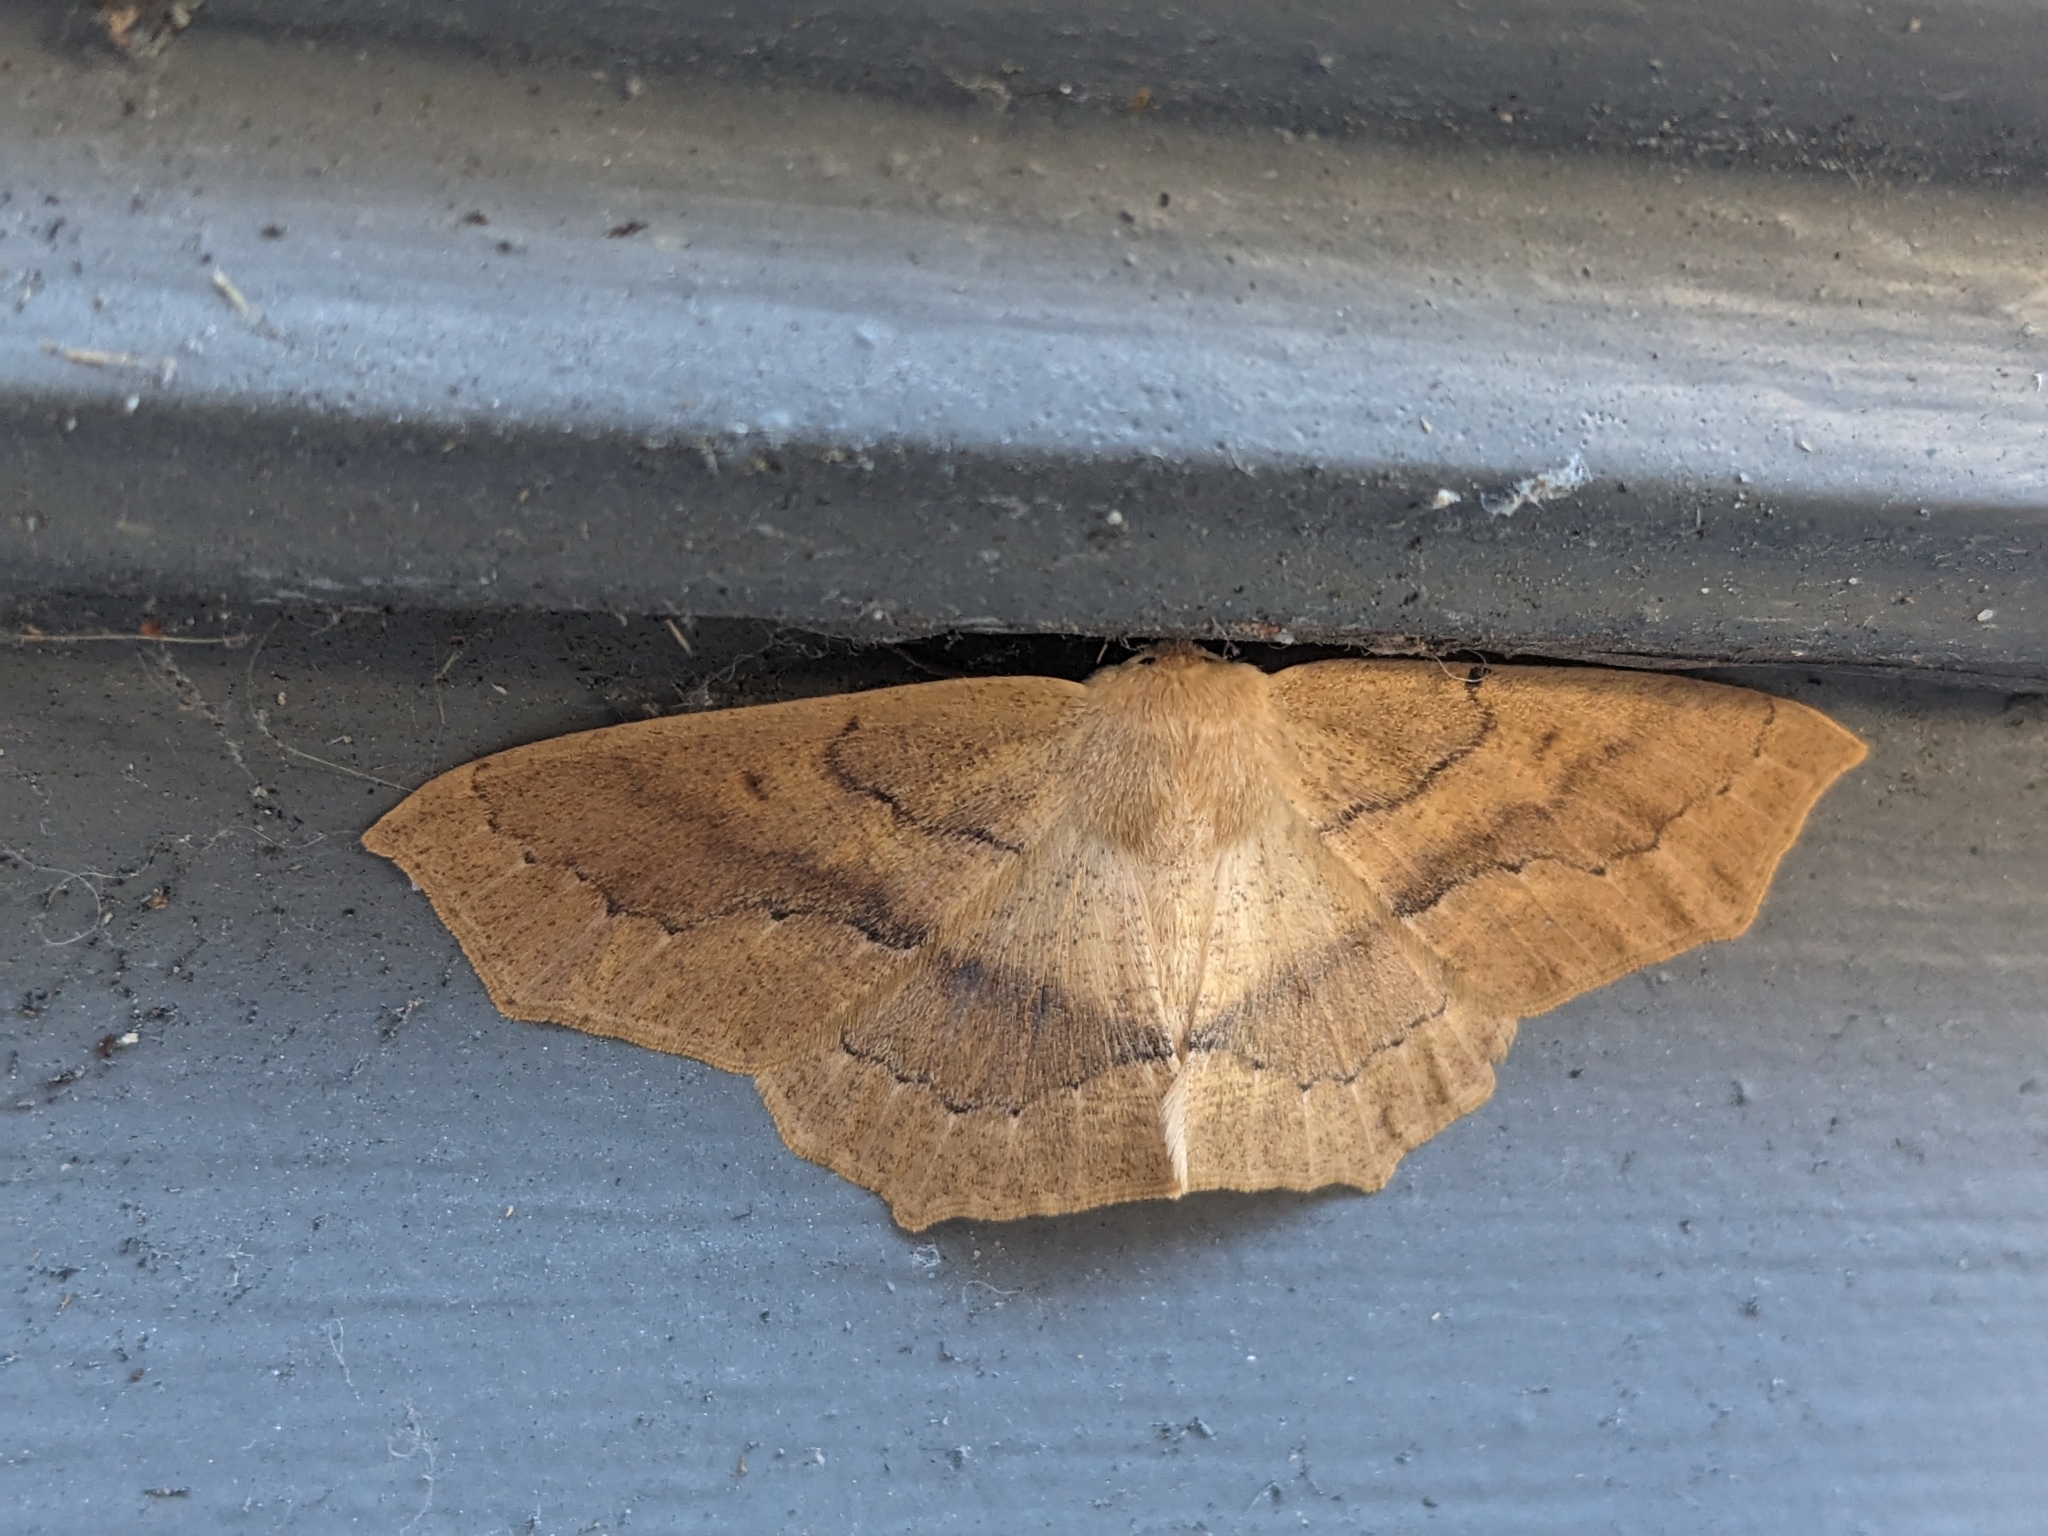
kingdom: Animalia
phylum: Arthropoda
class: Insecta
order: Lepidoptera
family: Geometridae
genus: Sabulodes
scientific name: Sabulodes aegrotata
